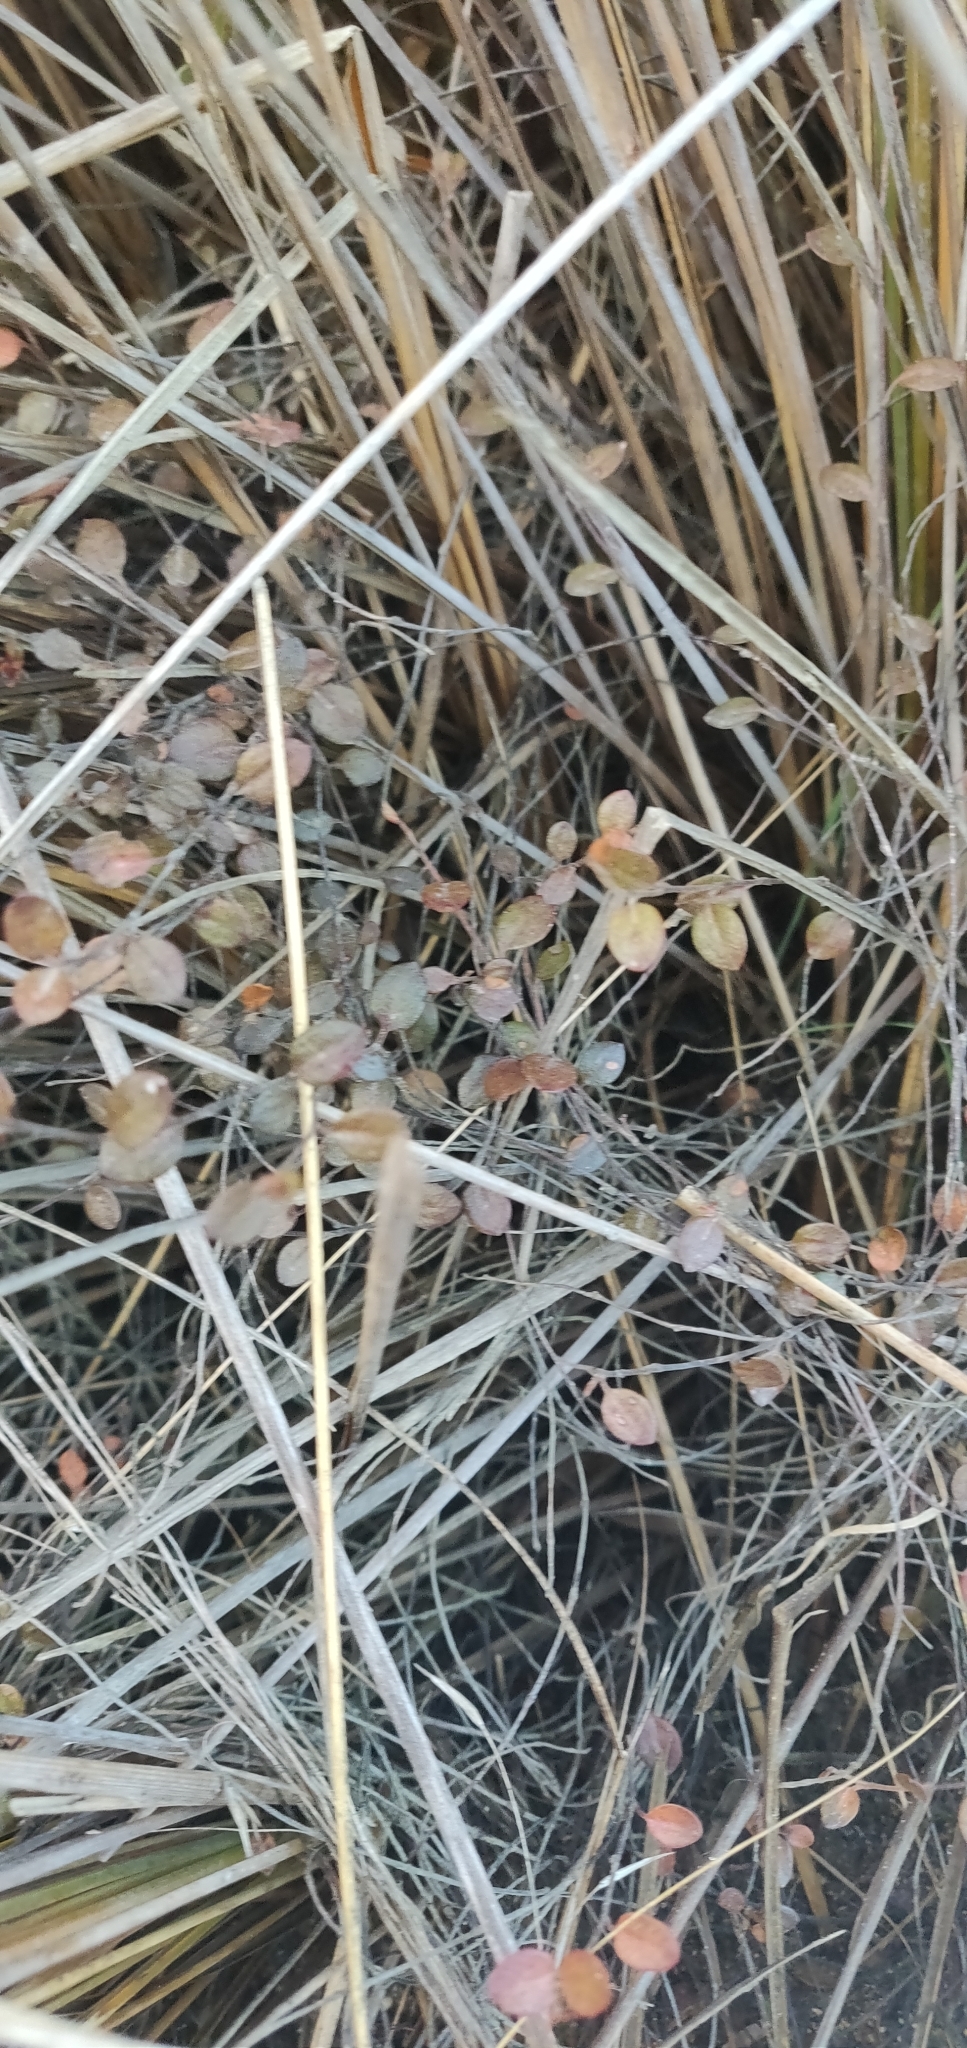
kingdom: Plantae
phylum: Tracheophyta
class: Magnoliopsida
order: Caryophyllales
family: Polygonaceae
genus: Muehlenbeckia
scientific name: Muehlenbeckia axillaris
